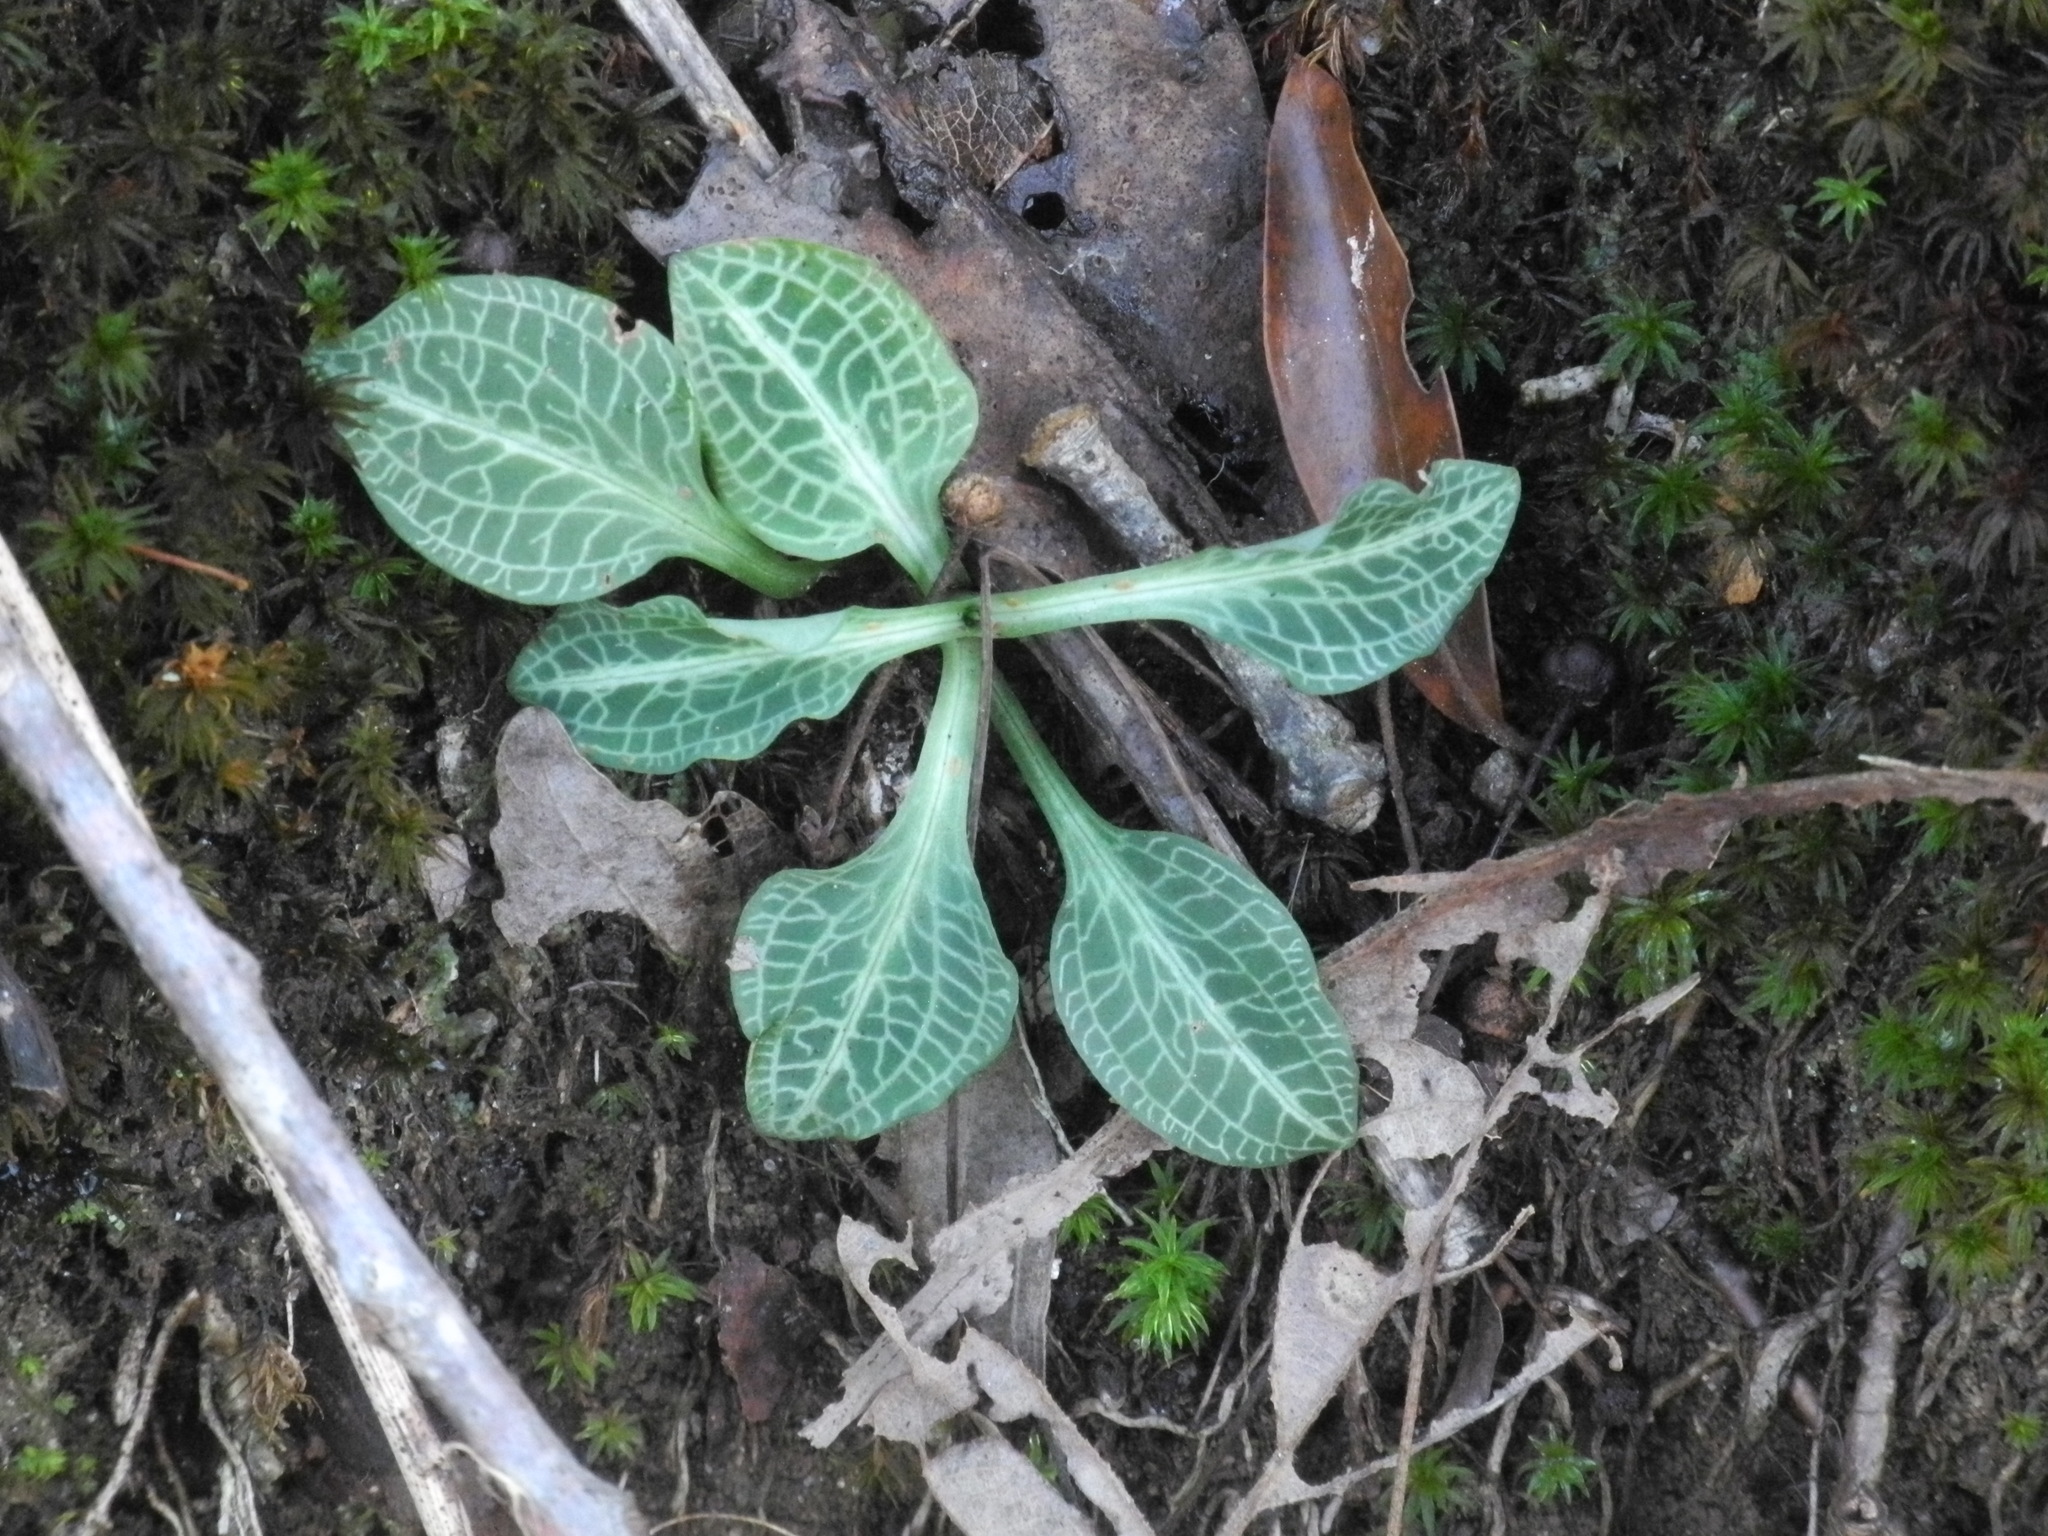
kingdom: Plantae
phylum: Tracheophyta
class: Liliopsida
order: Asparagales
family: Orchidaceae
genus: Goodyera
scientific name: Goodyera pubescens
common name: Downy rattlesnake-plantain
